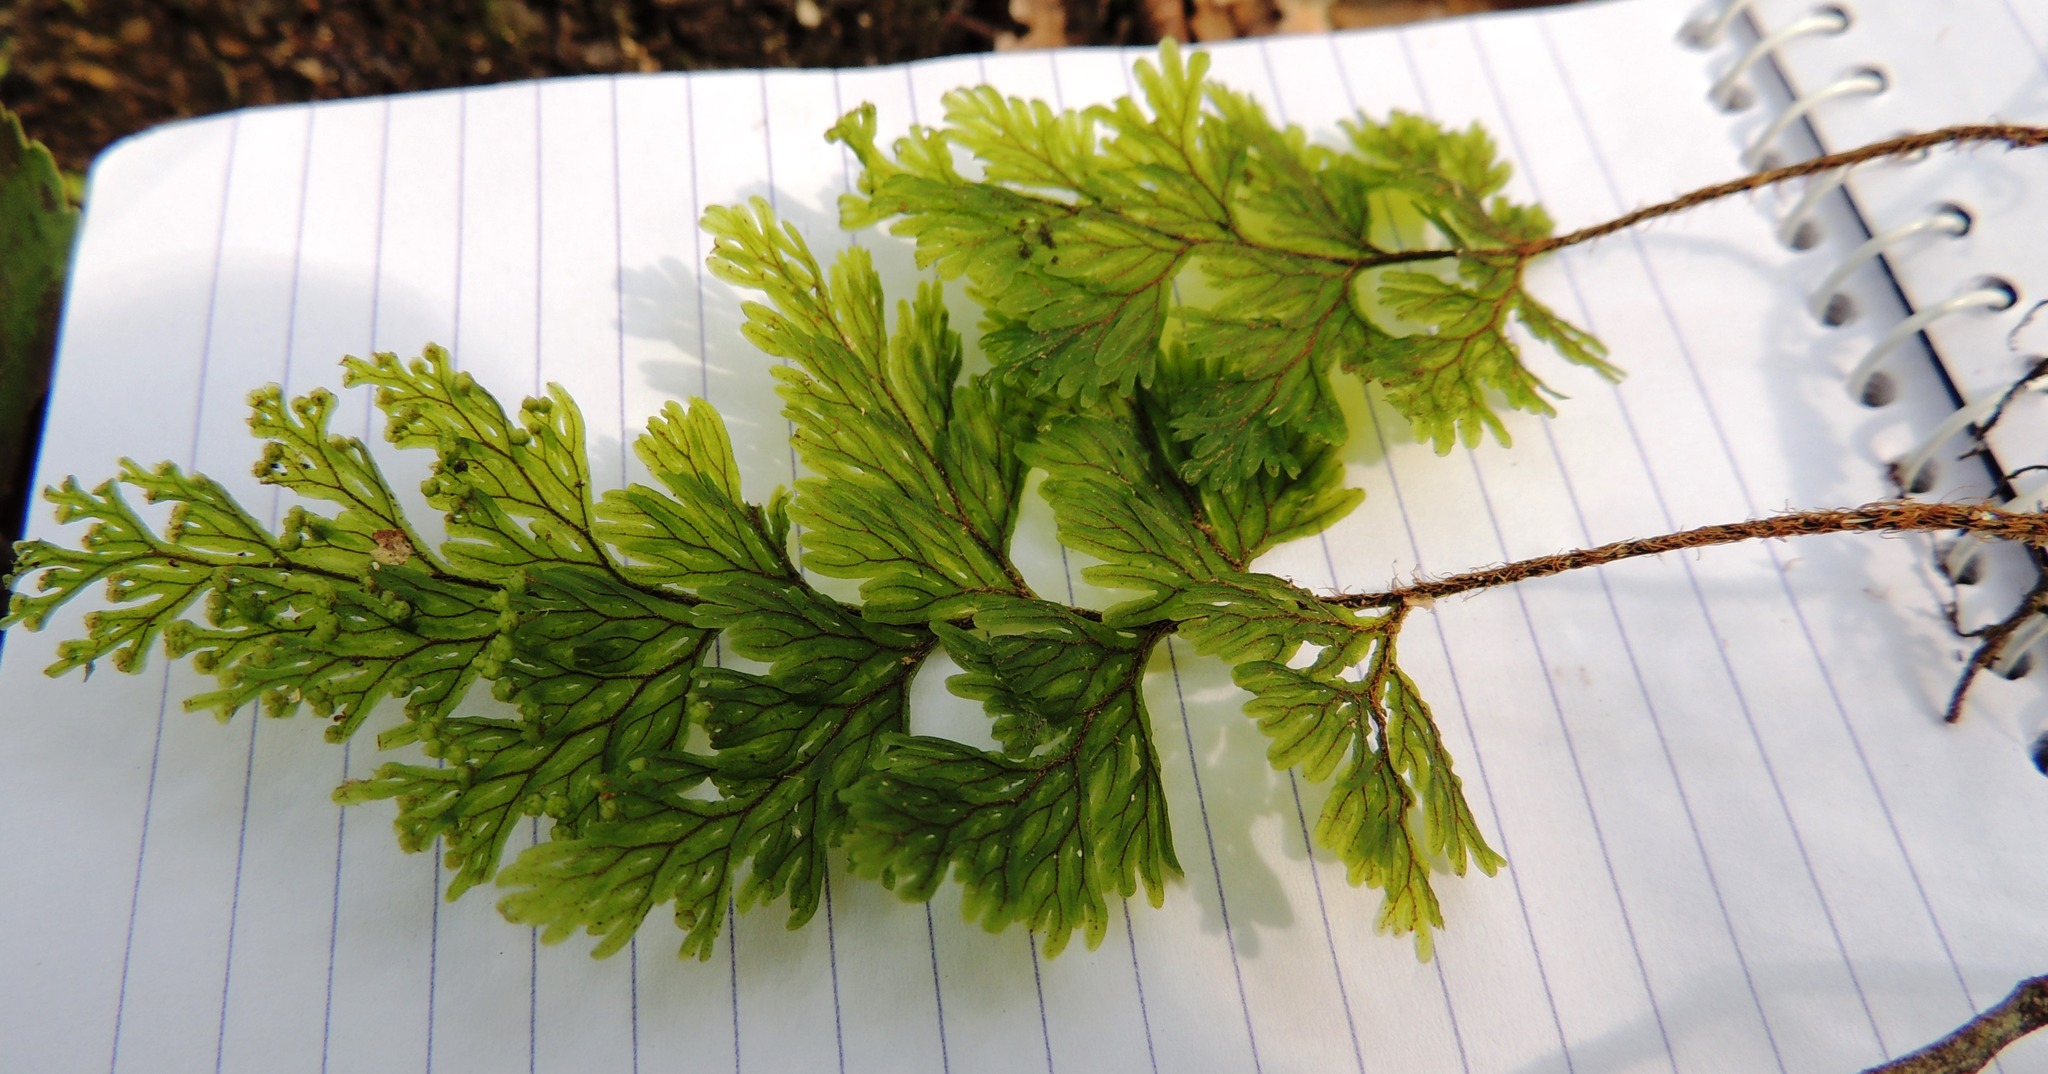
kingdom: Plantae
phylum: Tracheophyta
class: Polypodiopsida
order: Hymenophyllales
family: Hymenophyllaceae
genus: Hymenophyllum
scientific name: Hymenophyllum scabrum
